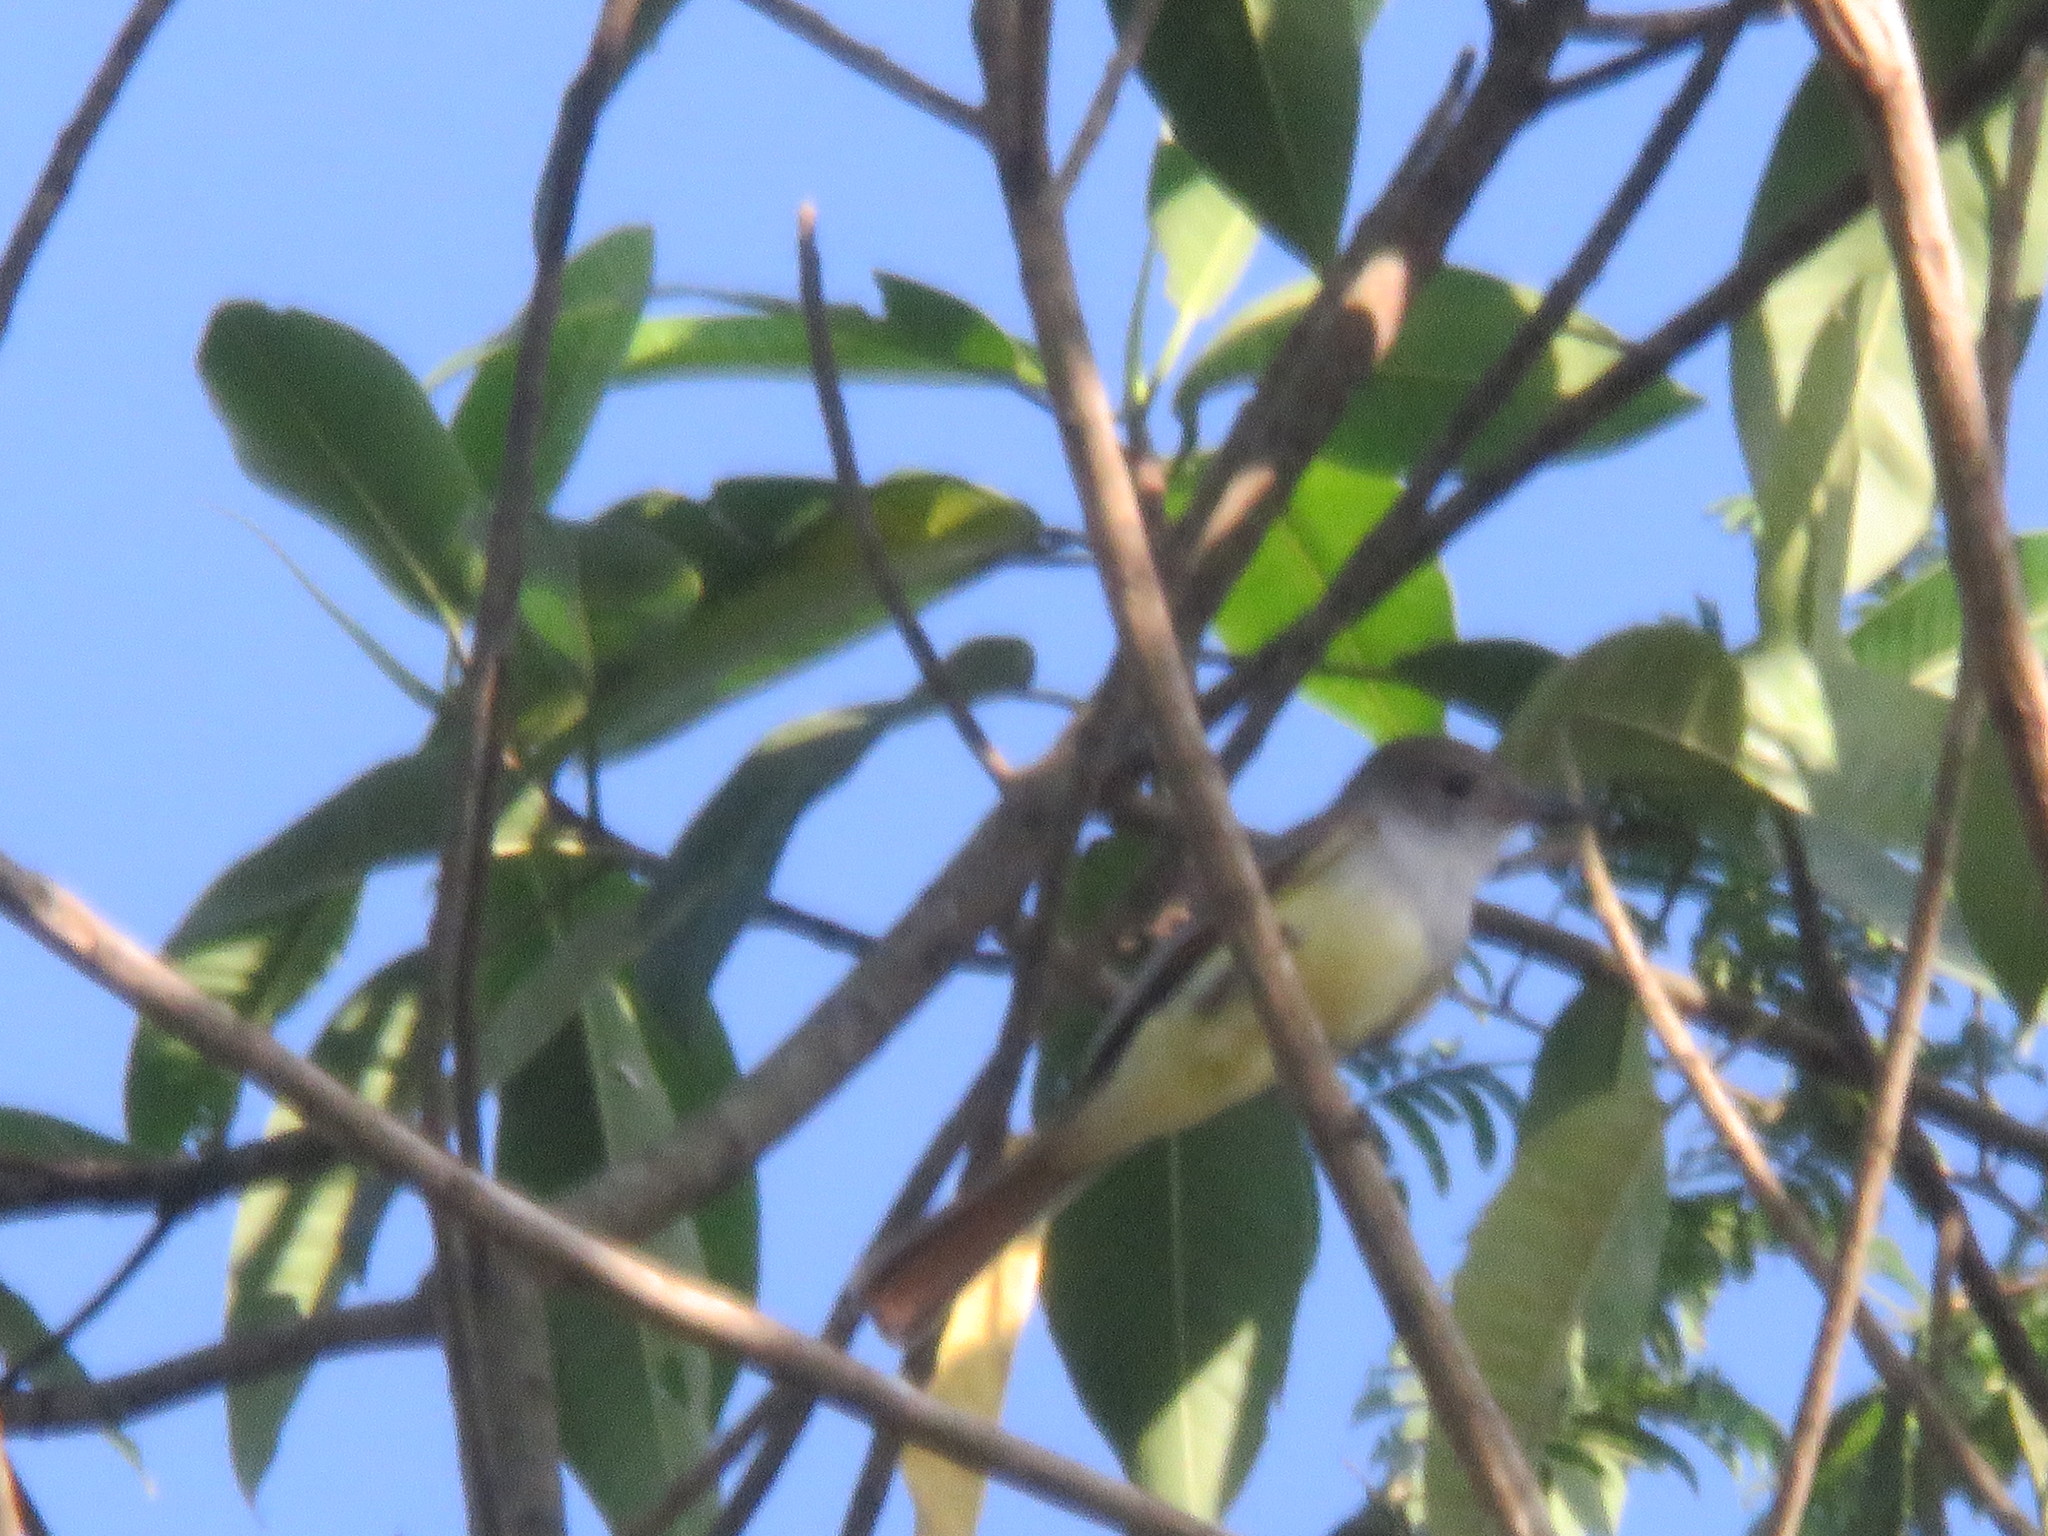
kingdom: Animalia
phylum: Chordata
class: Aves
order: Passeriformes
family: Tyrannidae
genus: Myiarchus
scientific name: Myiarchus tyrannulus
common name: Brown-crested flycatcher
